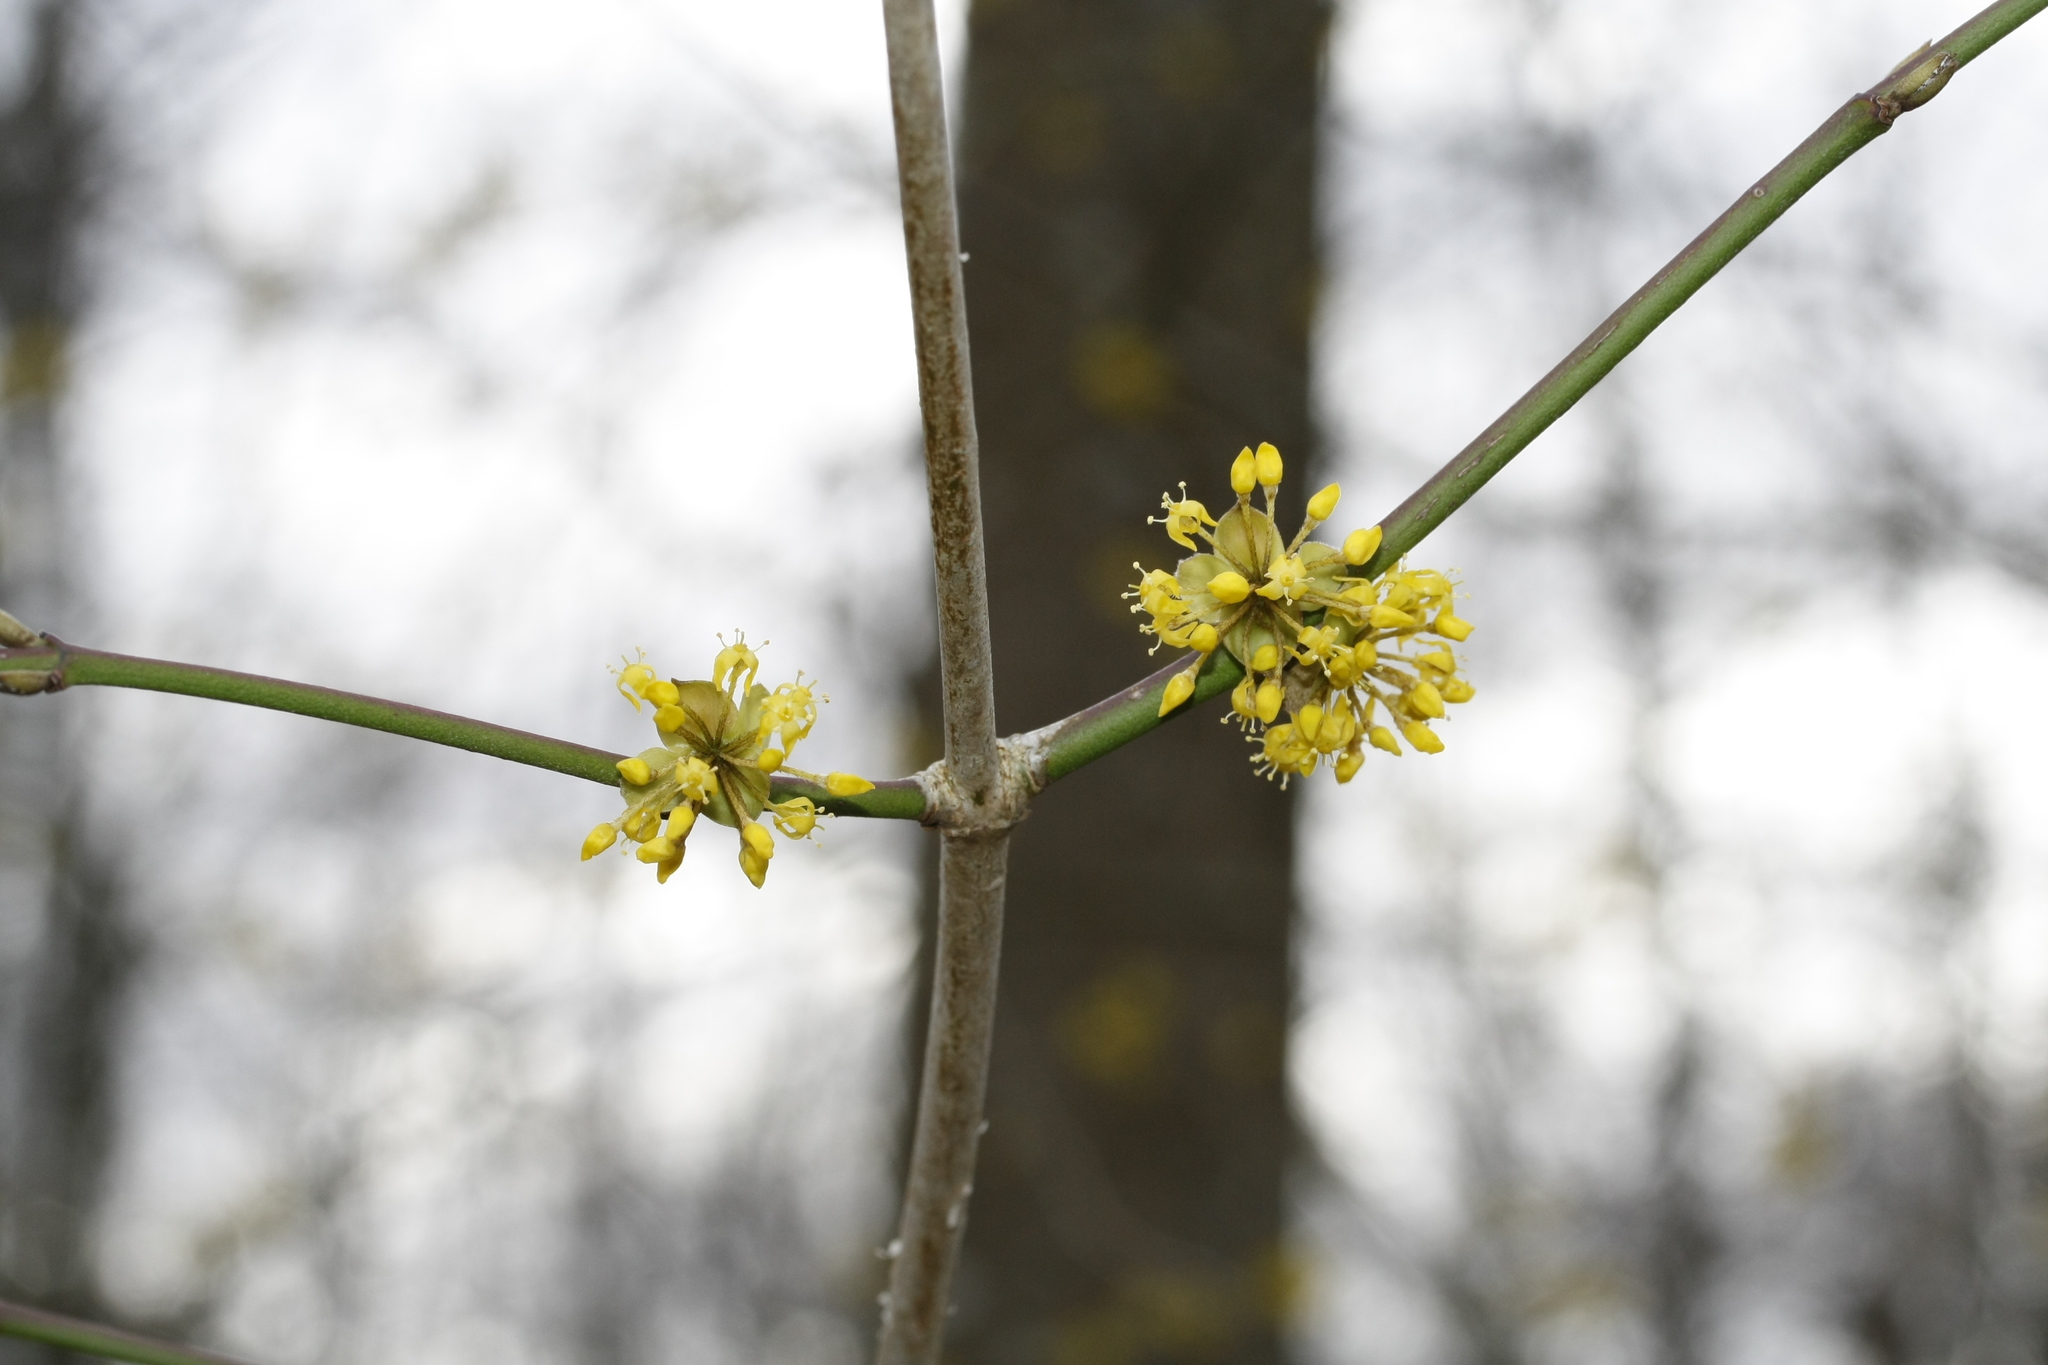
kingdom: Plantae
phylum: Tracheophyta
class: Magnoliopsida
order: Cornales
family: Cornaceae
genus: Cornus
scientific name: Cornus mas
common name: Cornelian-cherry
